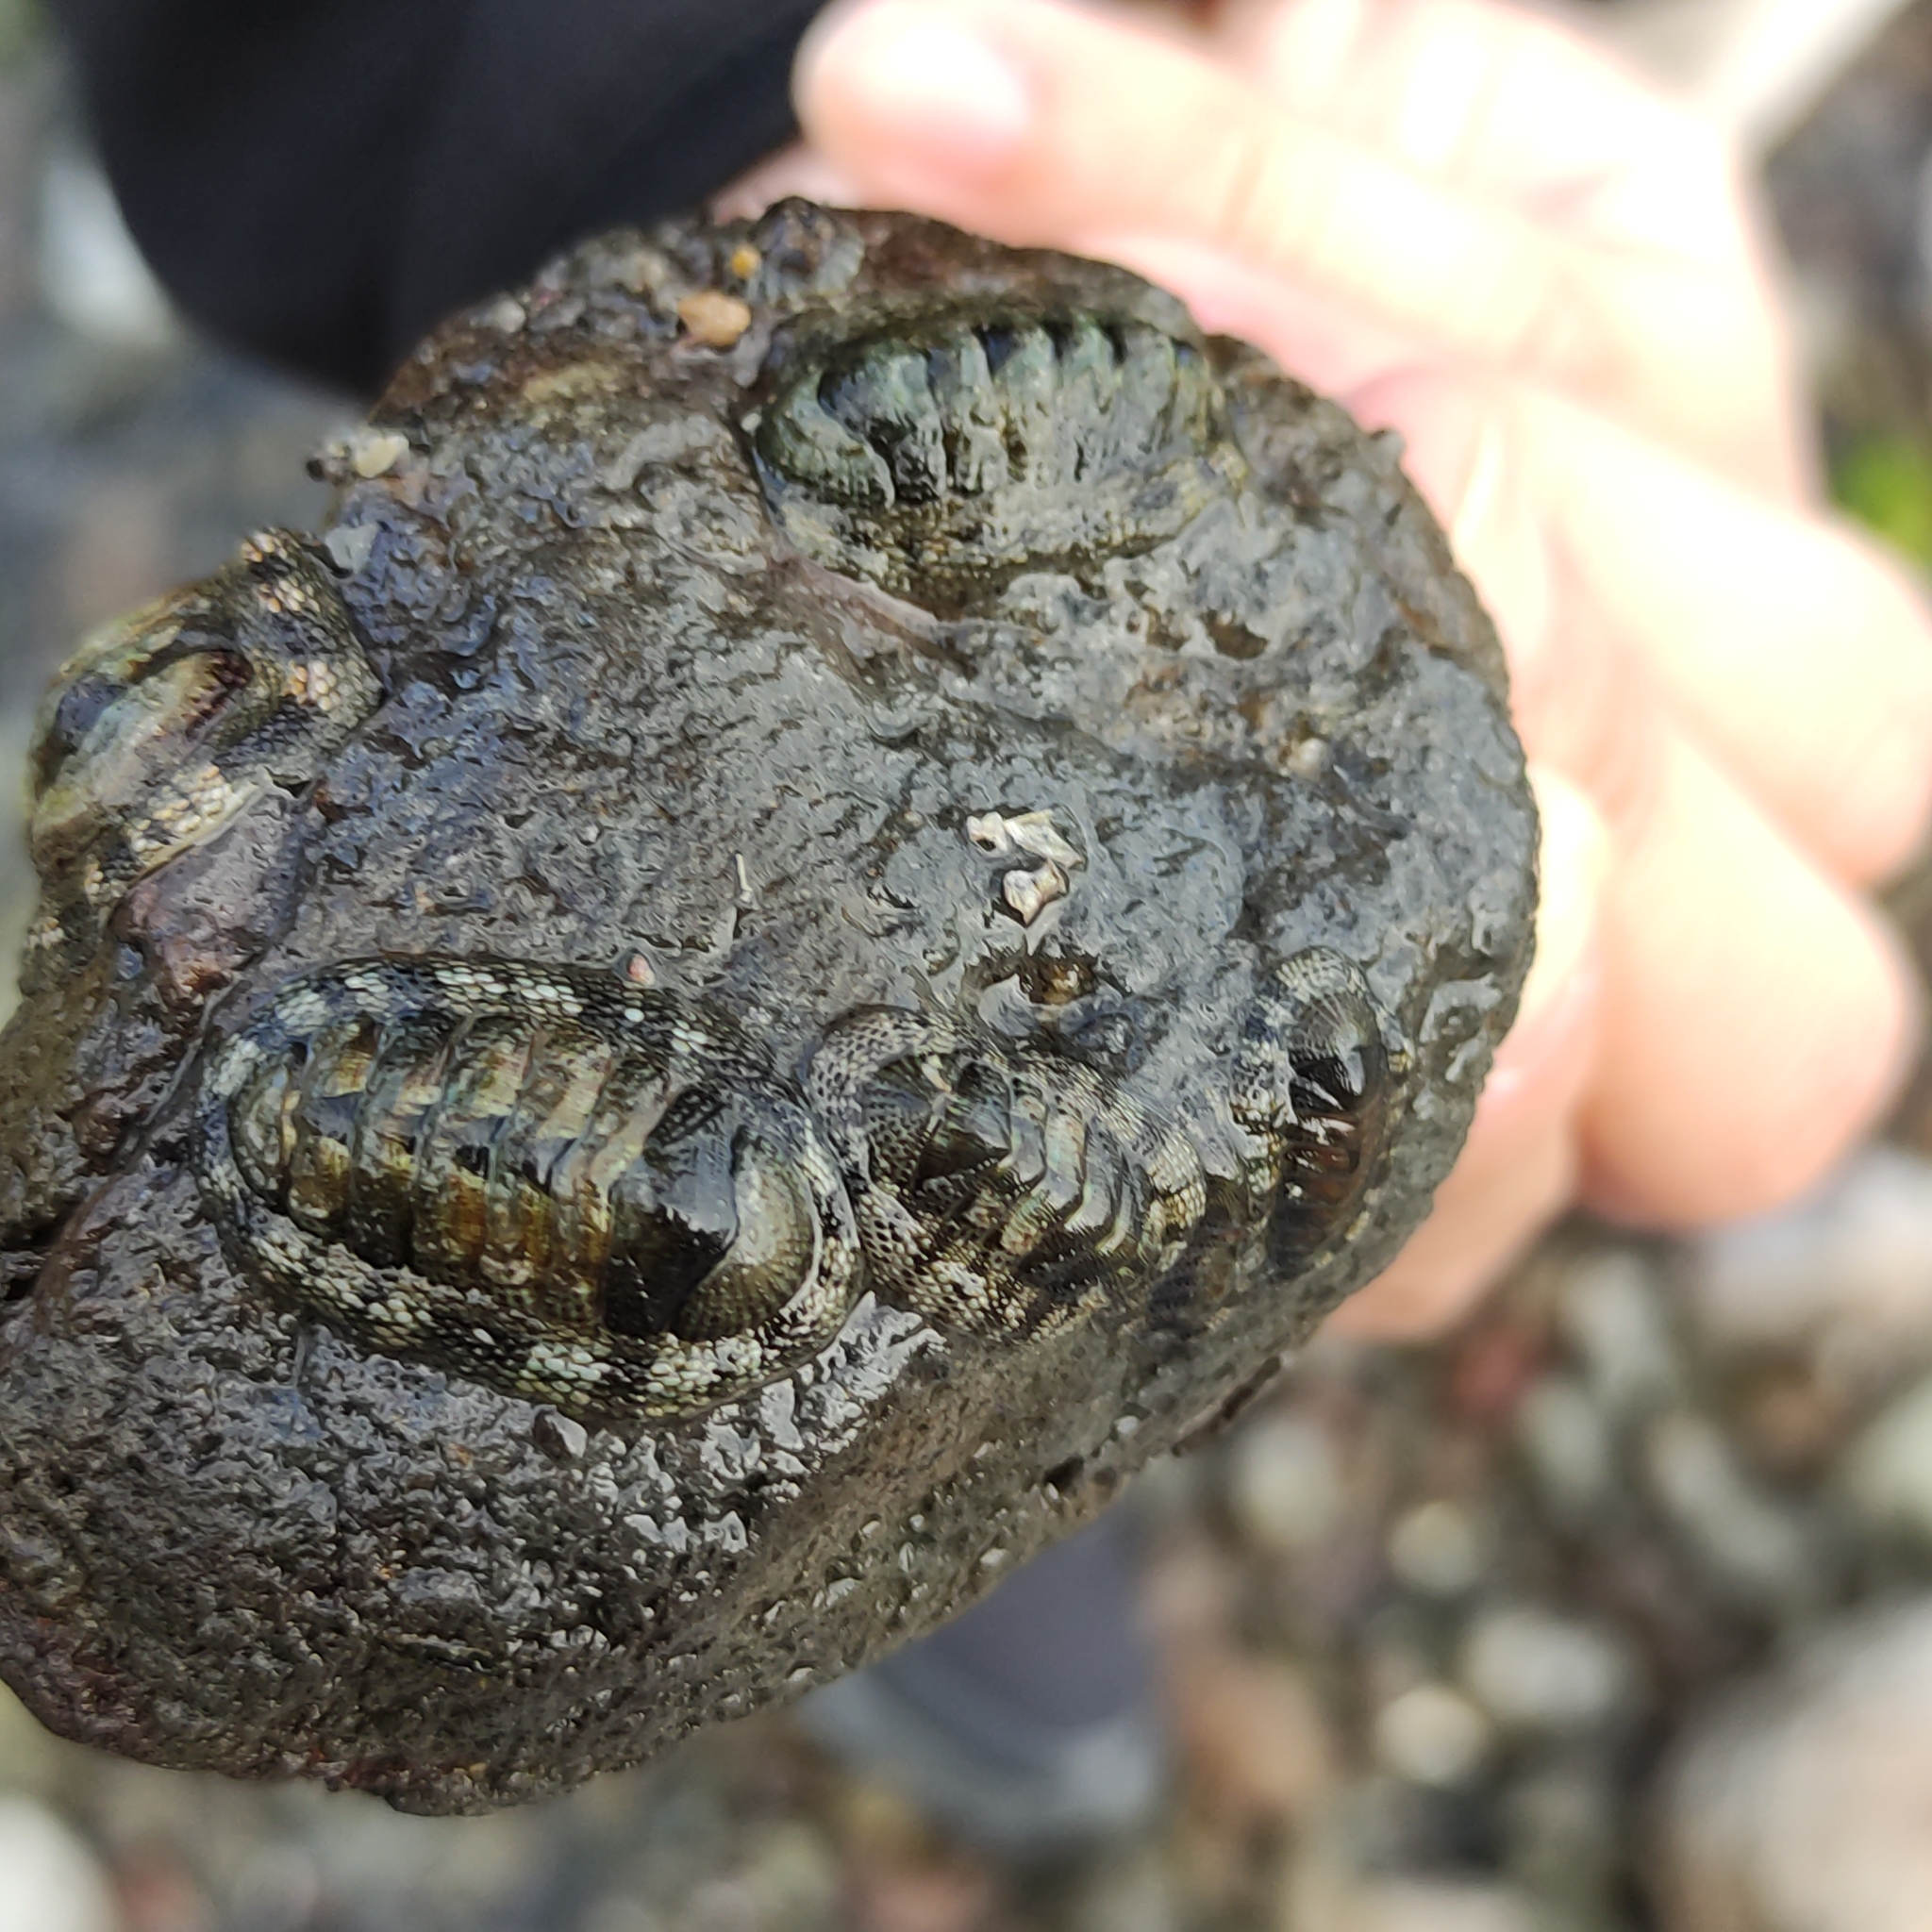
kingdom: Animalia
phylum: Mollusca
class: Polyplacophora
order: Chitonida
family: Chitonidae
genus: Sypharochiton
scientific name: Sypharochiton pelliserpentis
